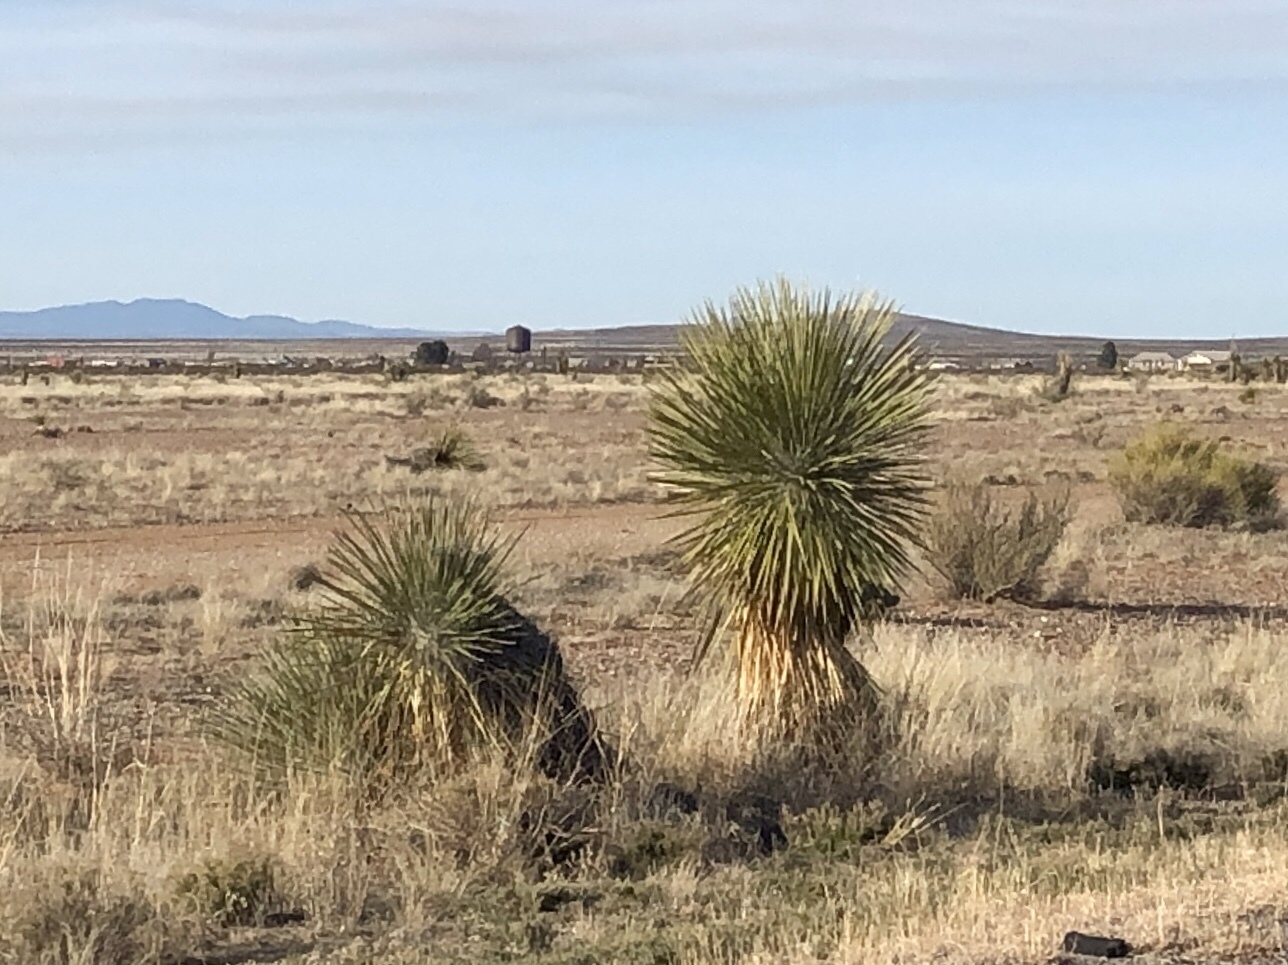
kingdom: Plantae
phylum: Tracheophyta
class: Liliopsida
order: Asparagales
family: Asparagaceae
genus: Yucca
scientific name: Yucca elata
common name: Palmella
